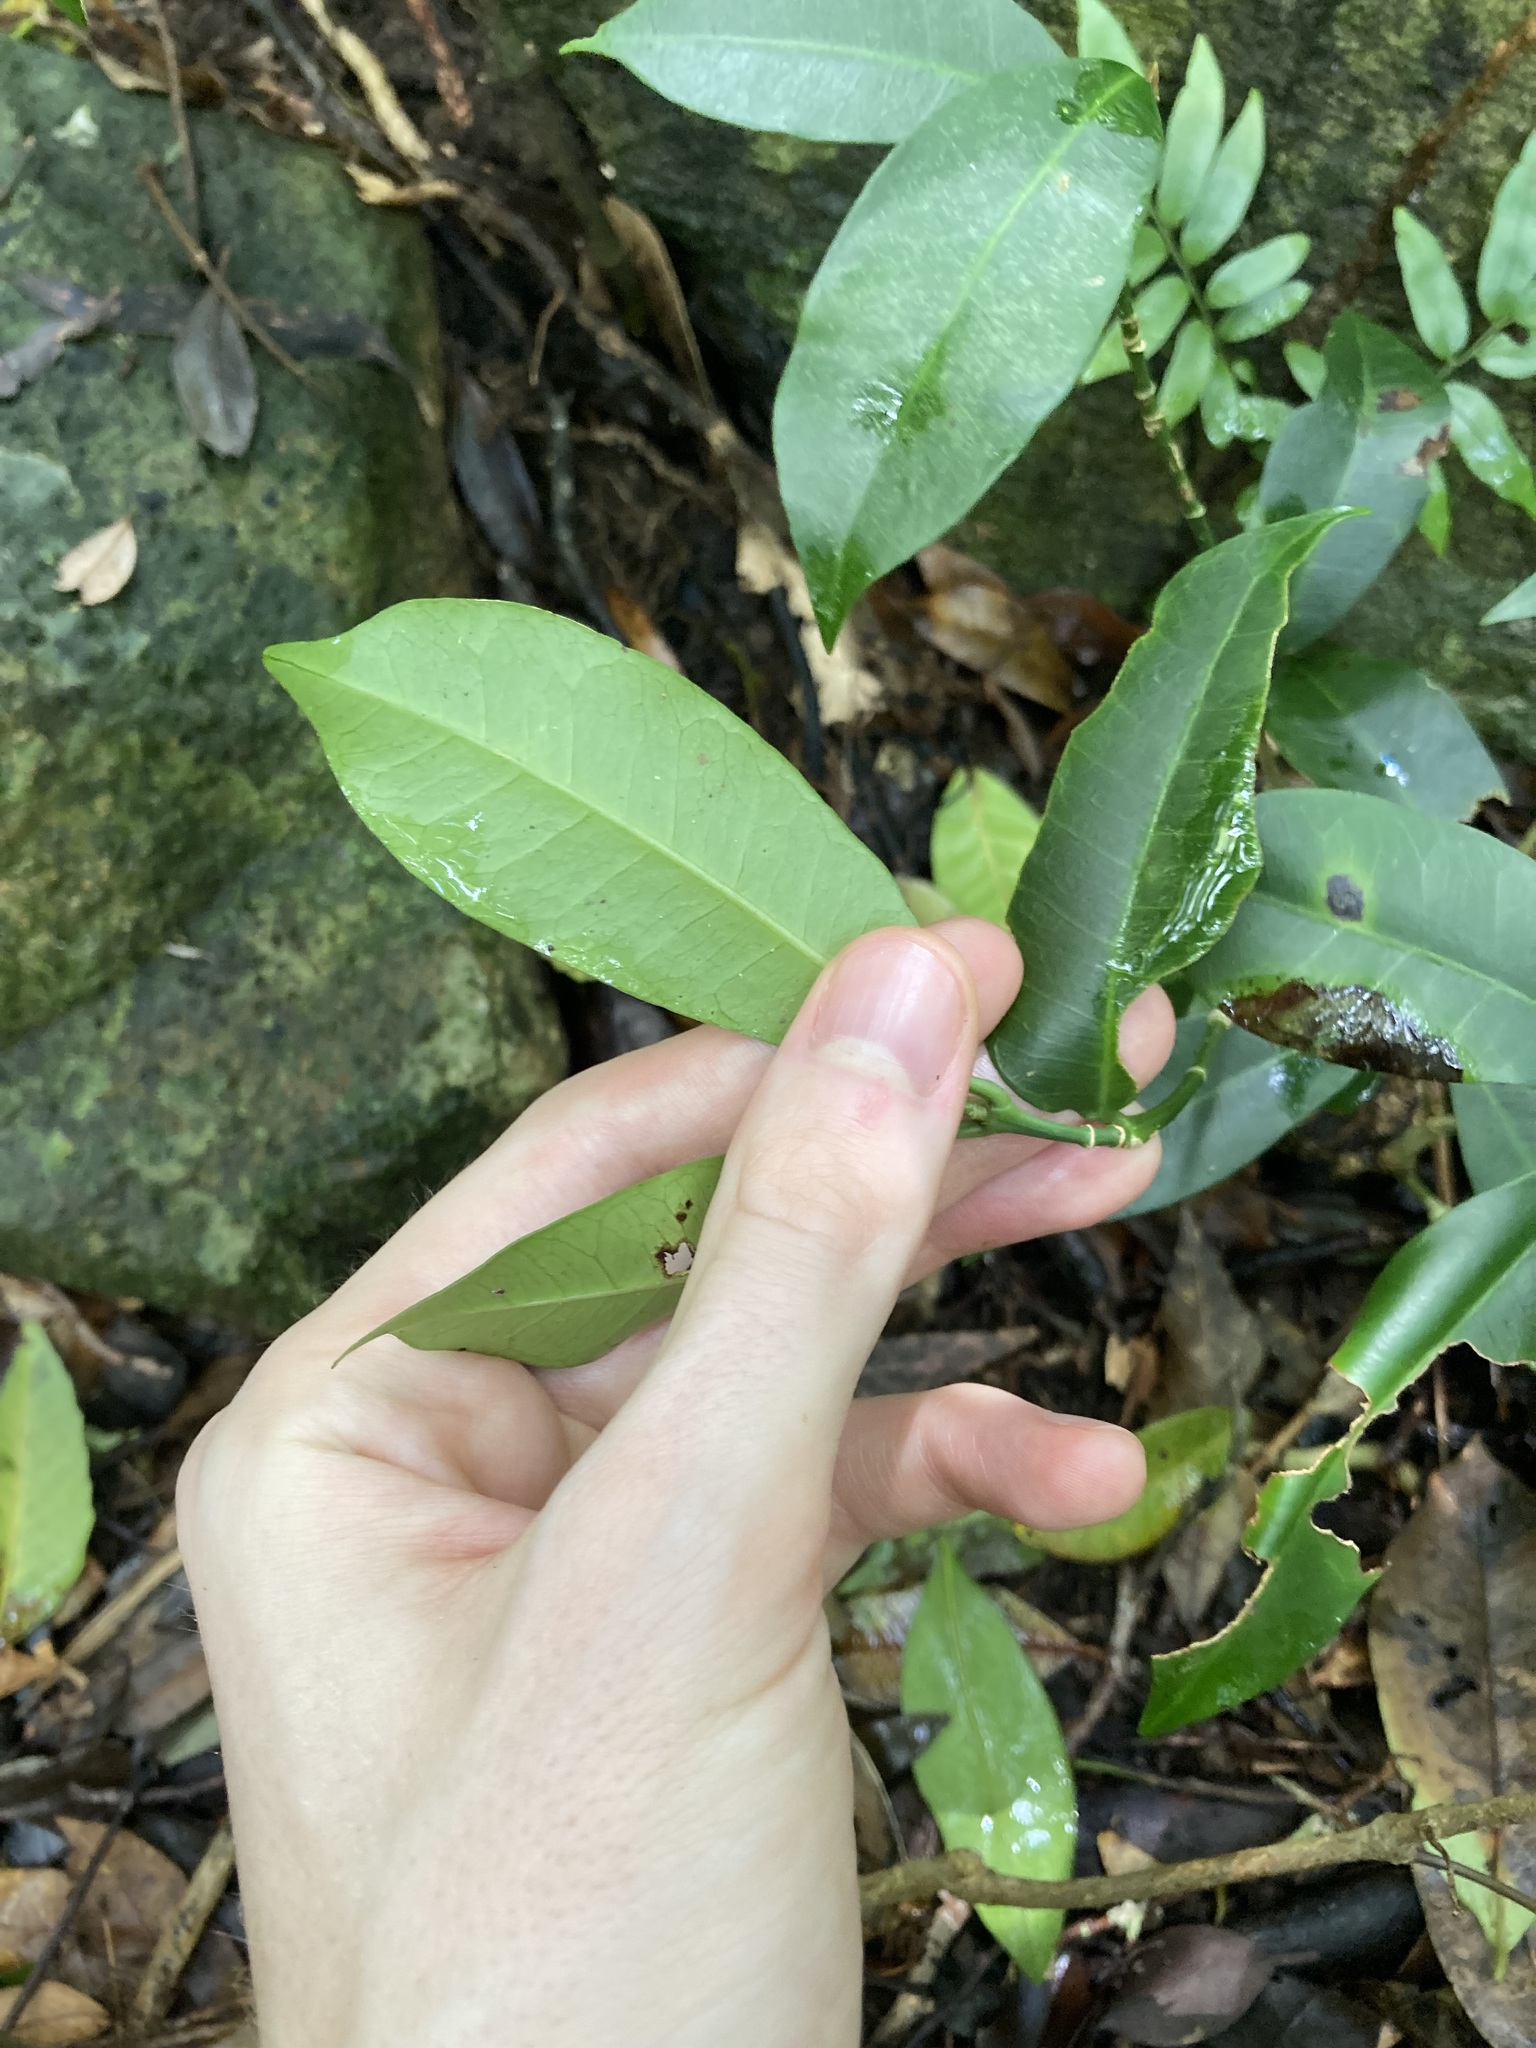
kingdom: Plantae
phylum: Tracheophyta
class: Magnoliopsida
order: Malpighiales
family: Euphorbiaceae
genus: Baloghia
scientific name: Baloghia inophylla
